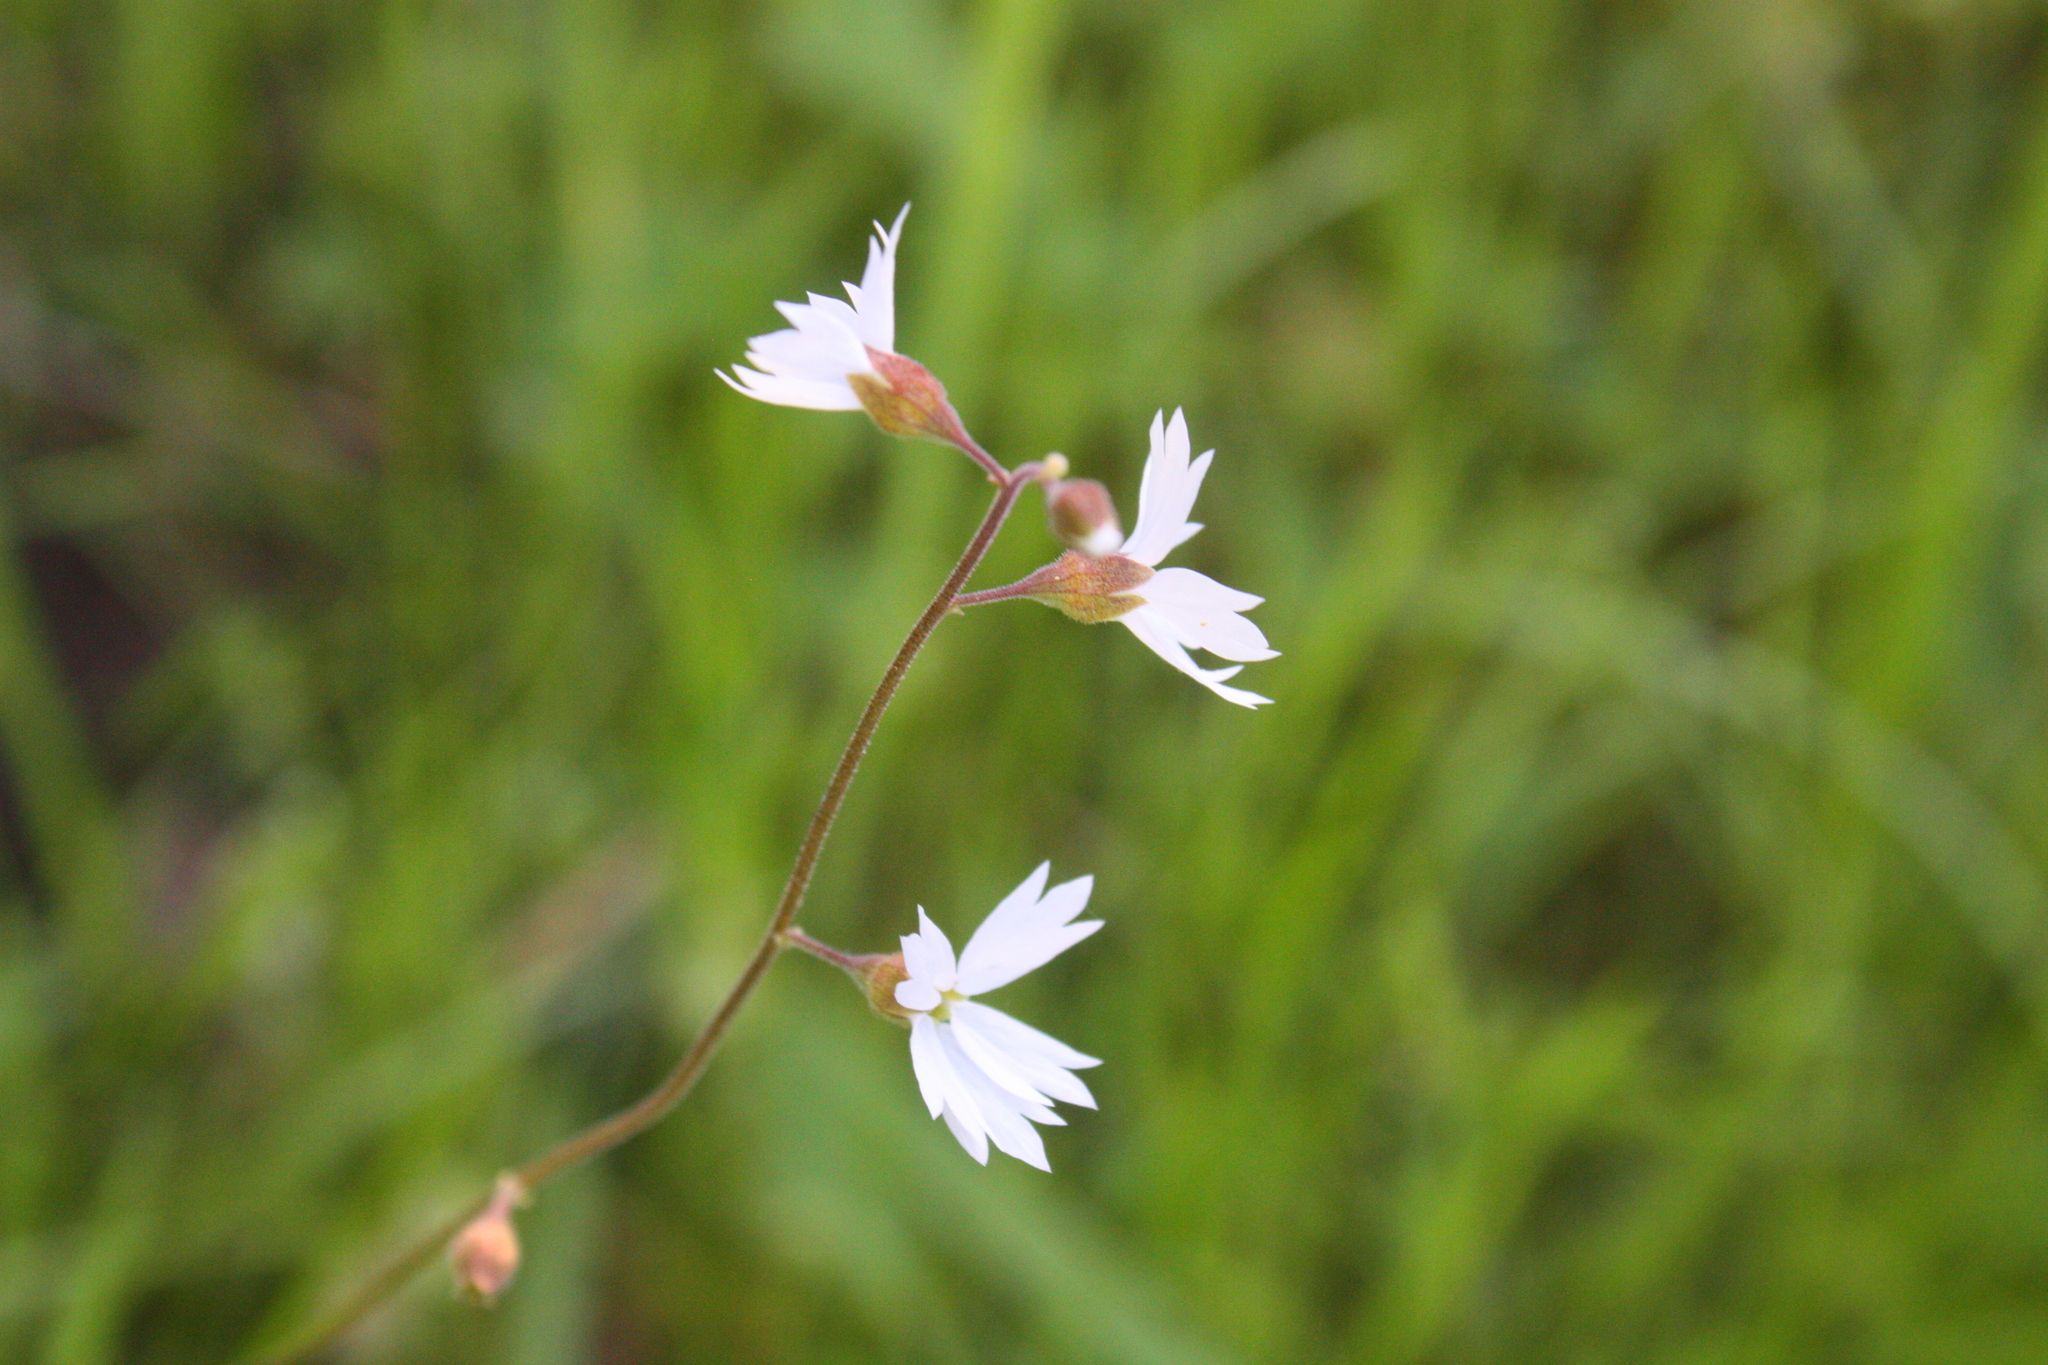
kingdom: Plantae
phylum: Tracheophyta
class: Magnoliopsida
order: Saxifragales
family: Saxifragaceae
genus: Lithophragma
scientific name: Lithophragma affine
